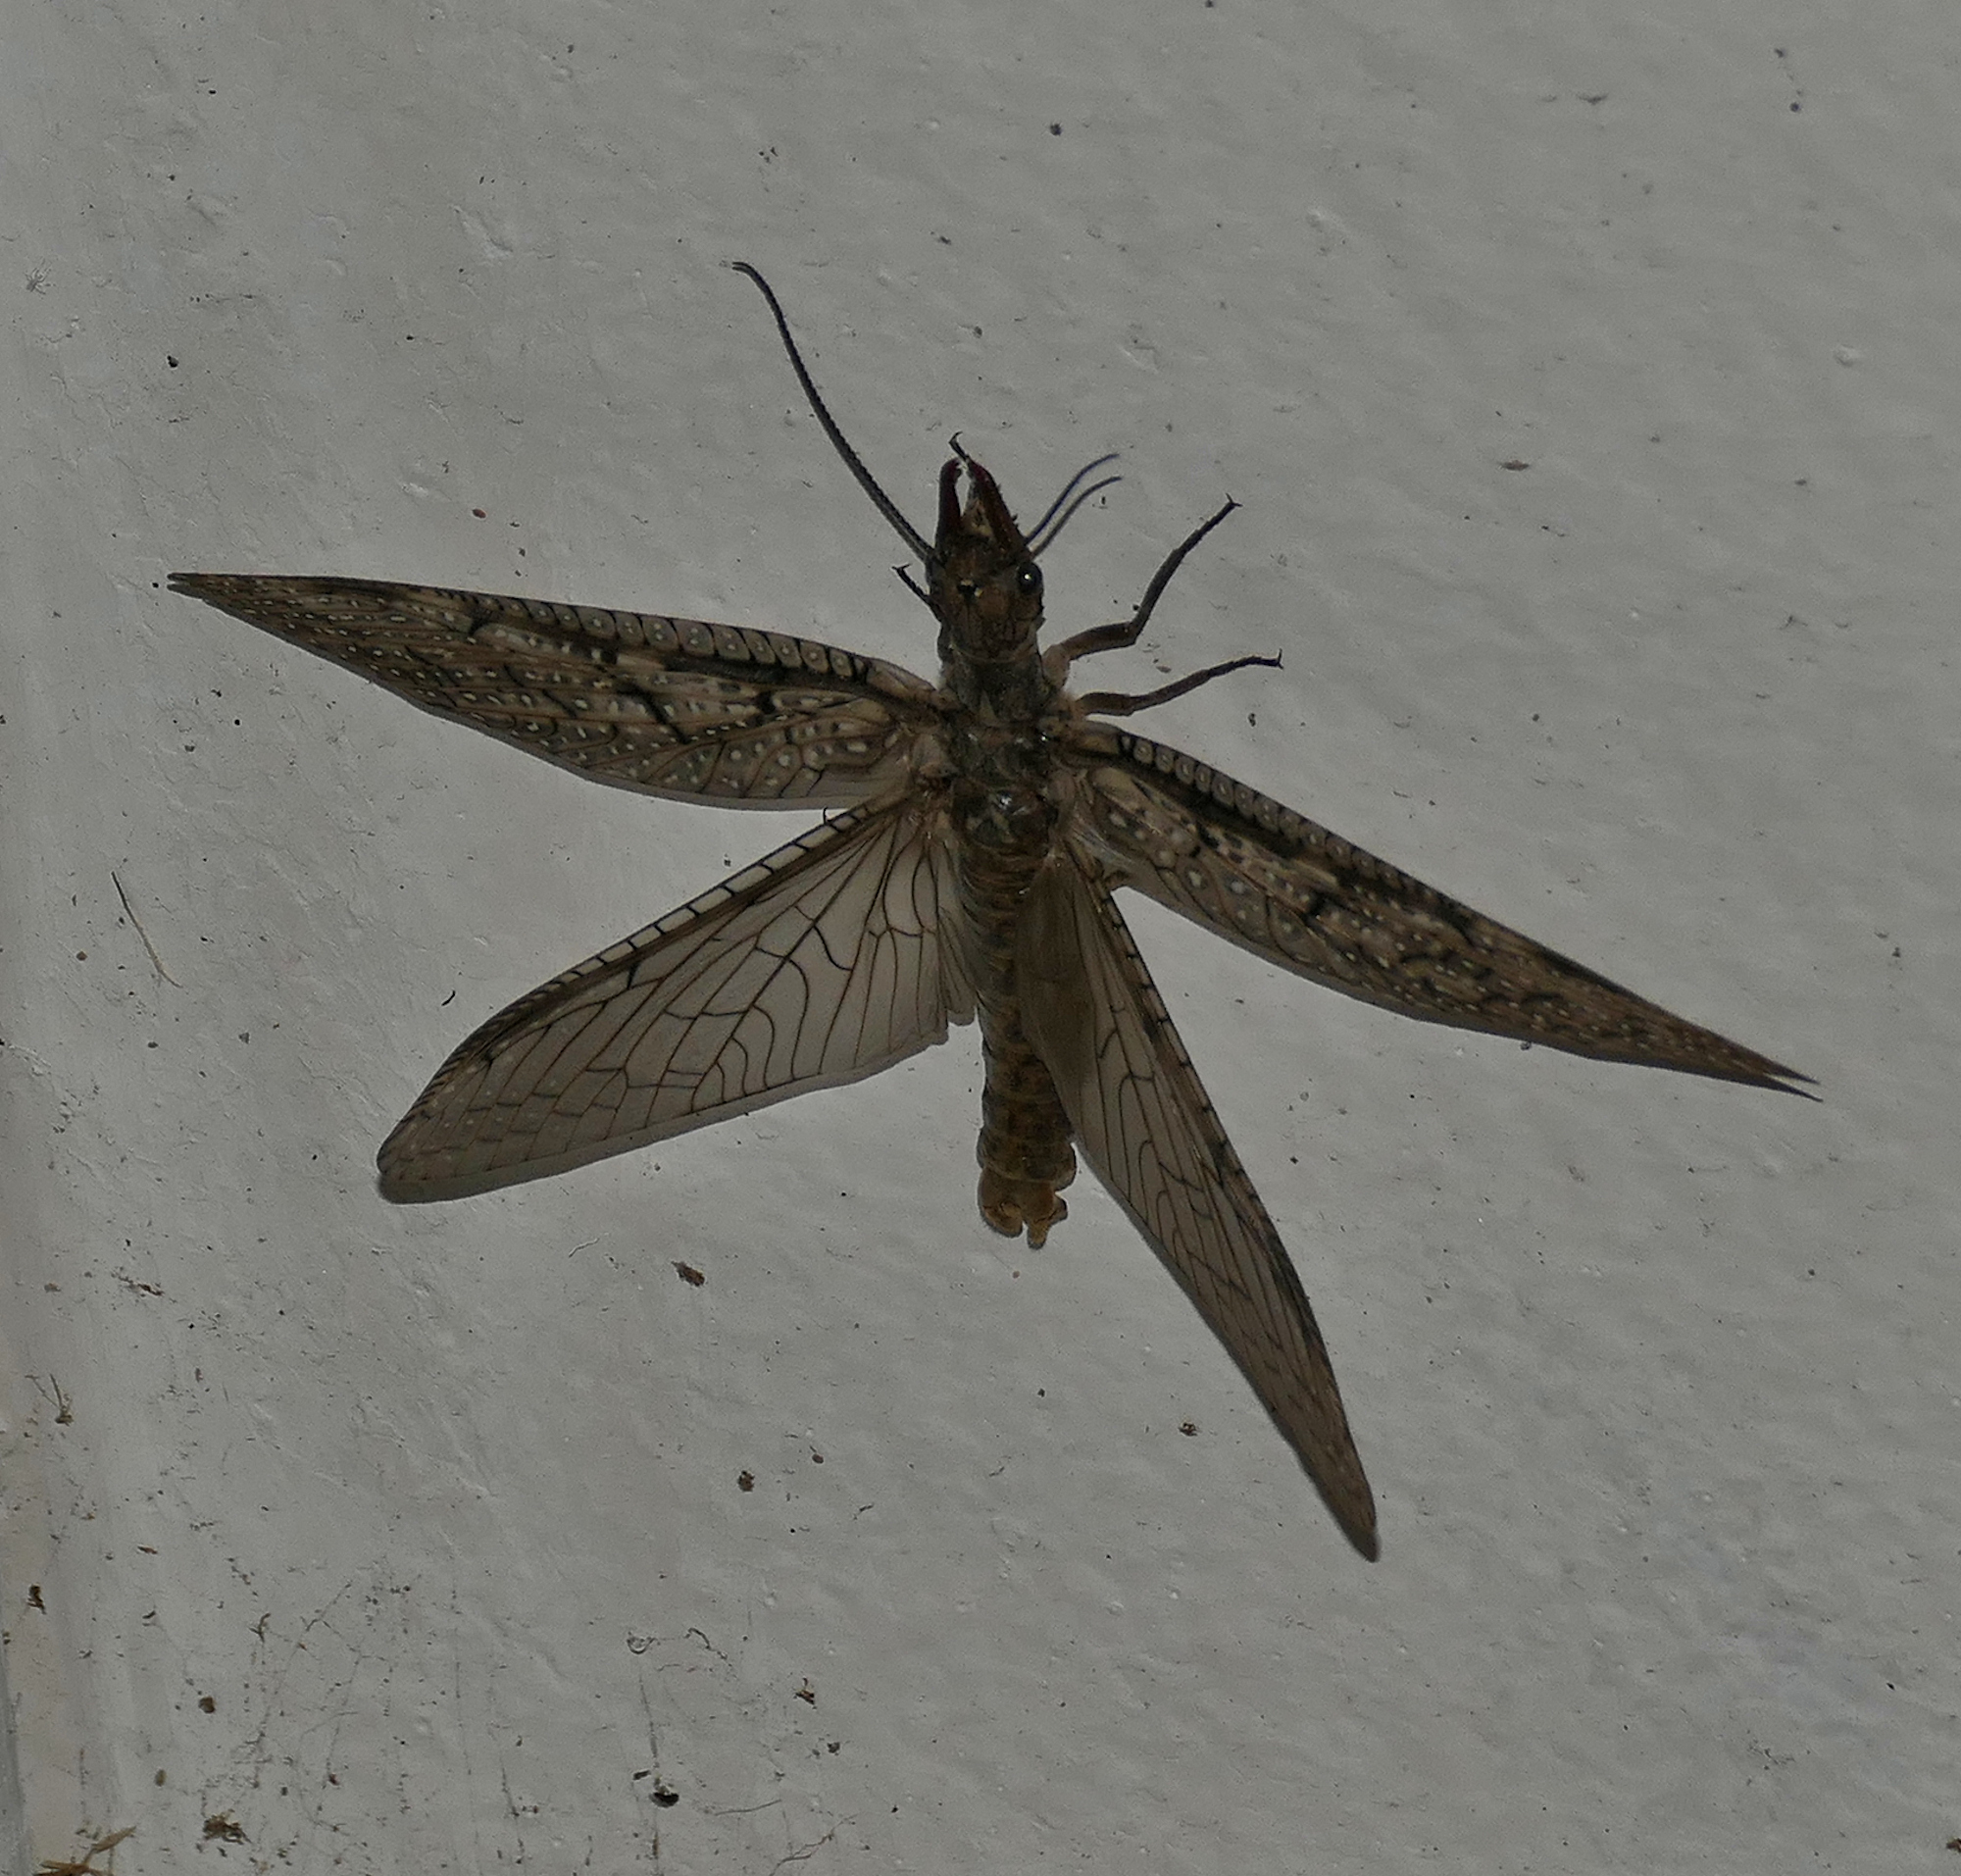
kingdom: Animalia
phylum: Arthropoda
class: Insecta
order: Megaloptera
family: Corydalidae
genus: Corydalus
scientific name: Corydalus texanus
